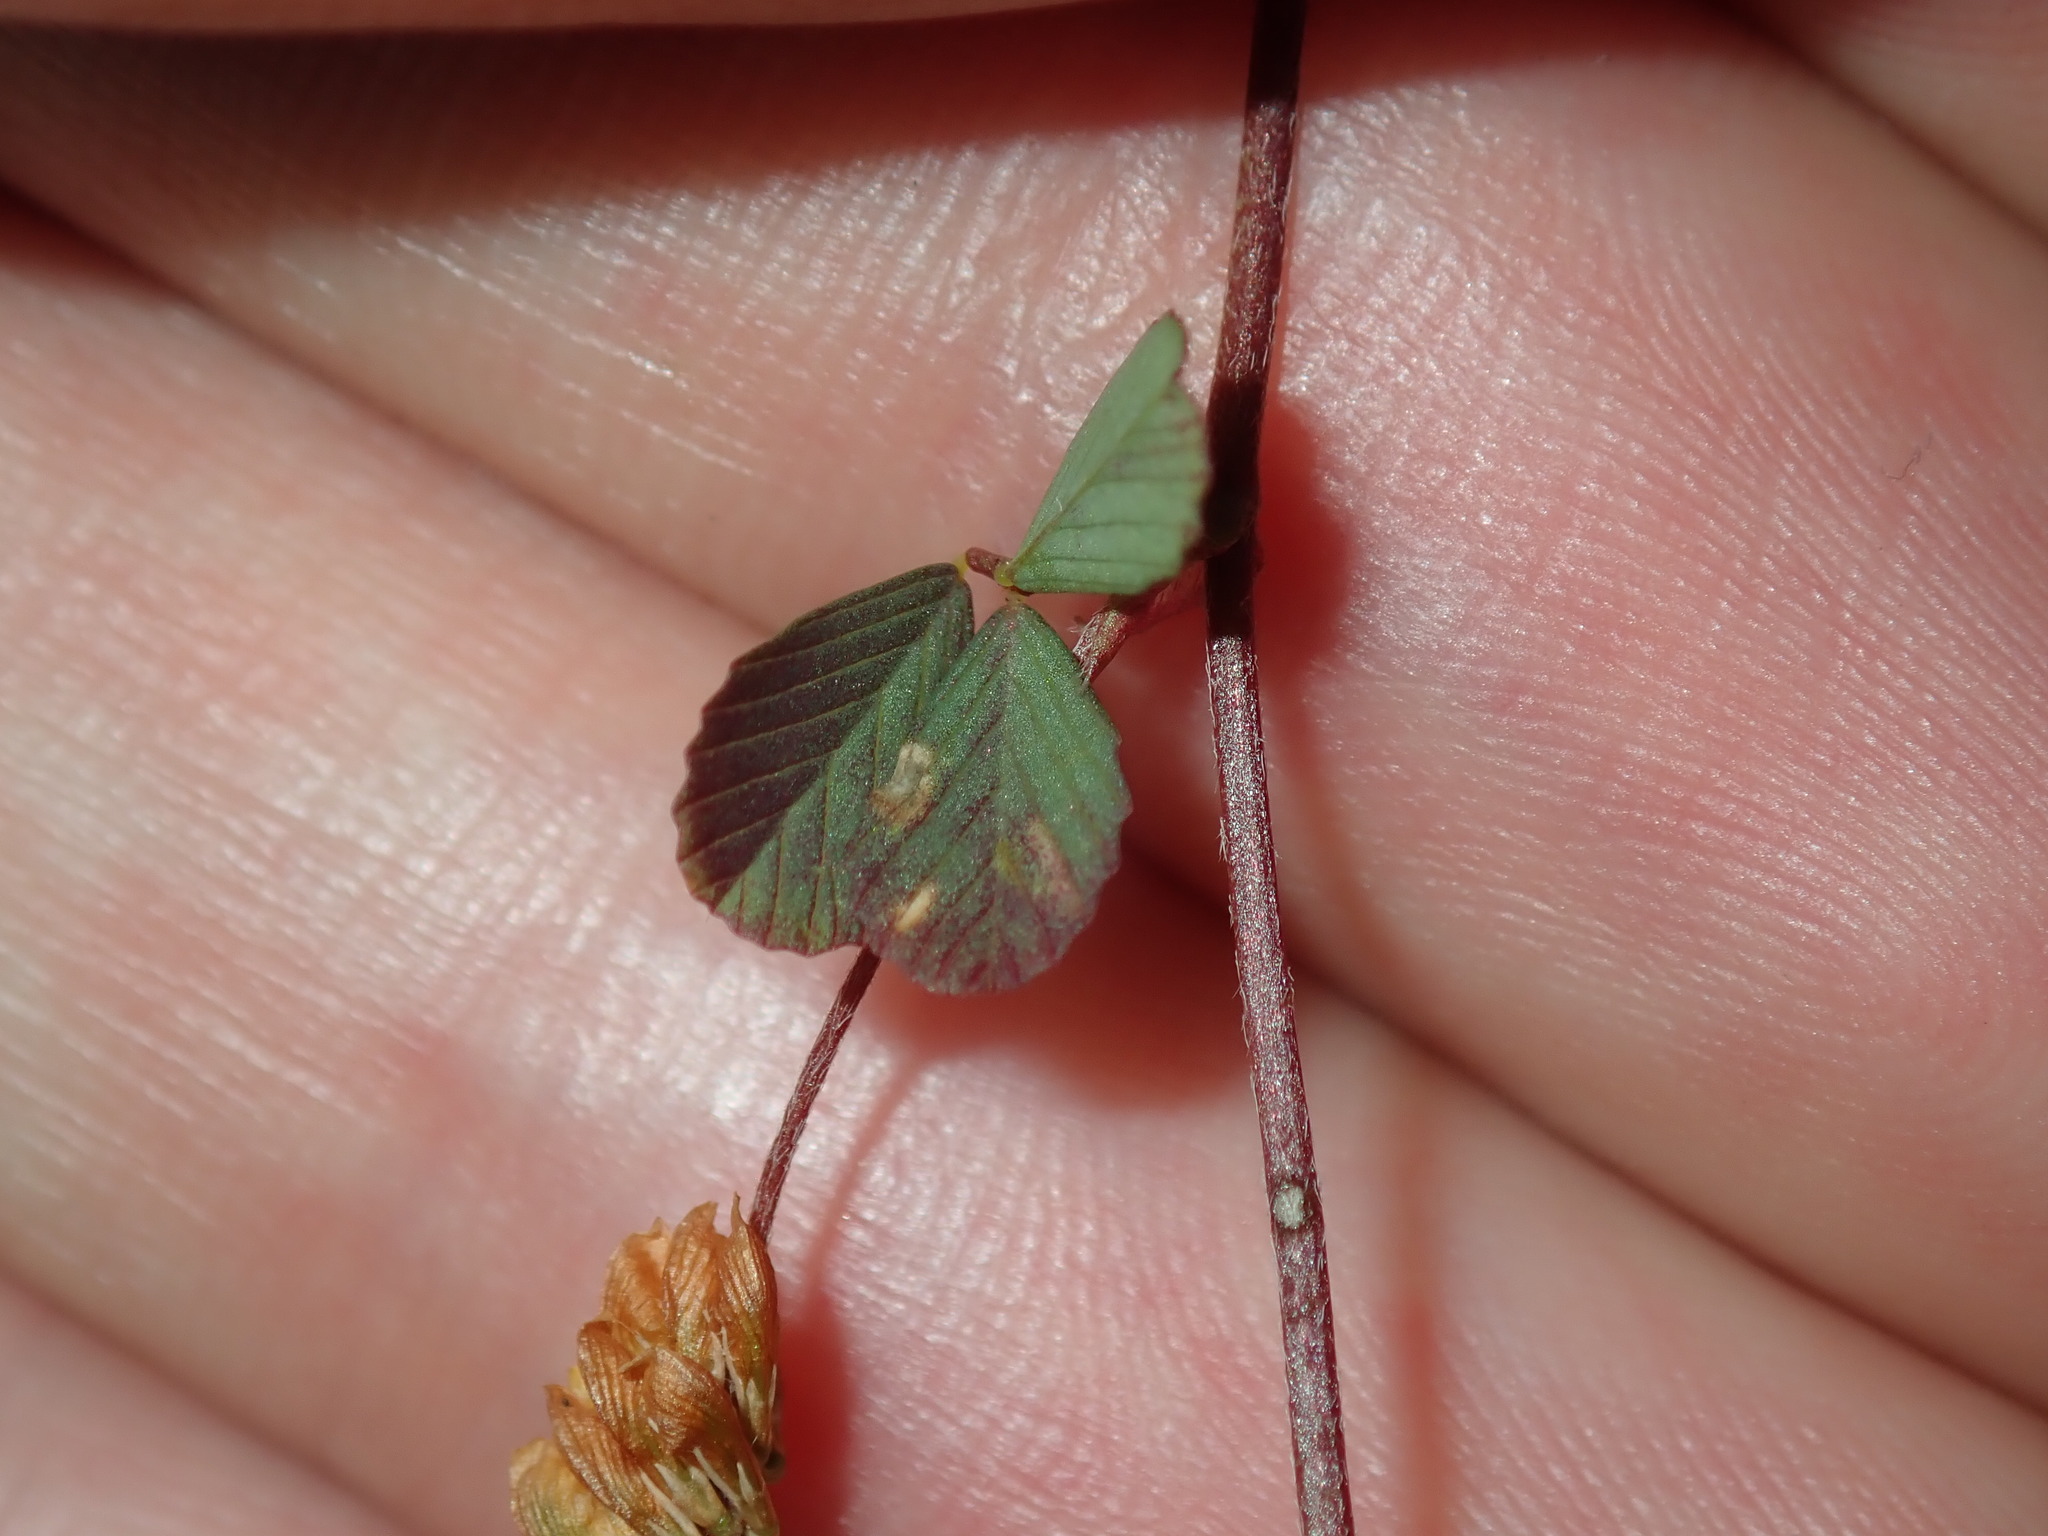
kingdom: Plantae
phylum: Tracheophyta
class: Magnoliopsida
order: Fabales
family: Fabaceae
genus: Trifolium
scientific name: Trifolium dubium
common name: Suckling clover
